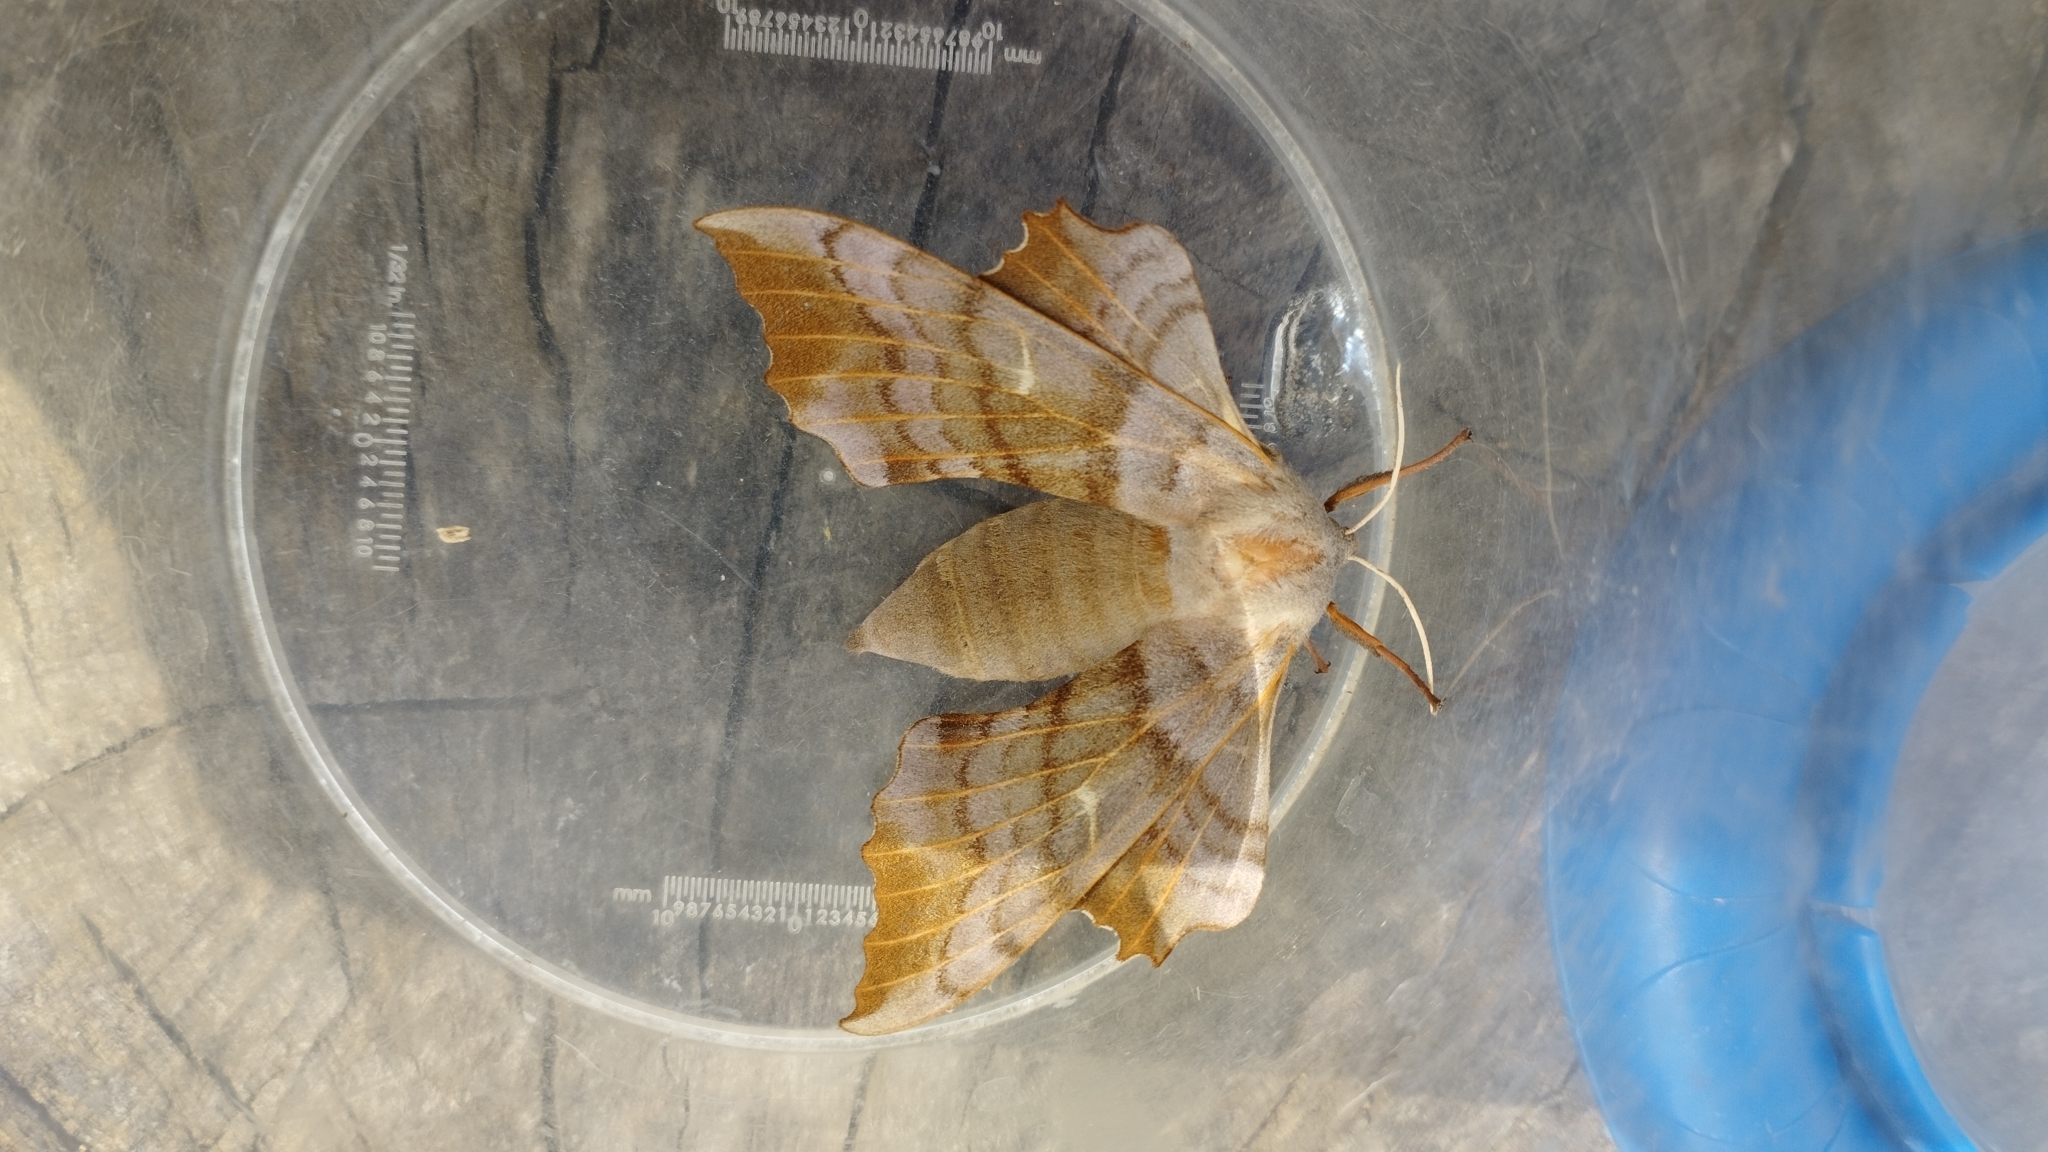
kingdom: Animalia
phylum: Arthropoda
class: Insecta
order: Lepidoptera
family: Sphingidae
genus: Laothoe
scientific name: Laothoe populi
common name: Poplar hawk-moth
